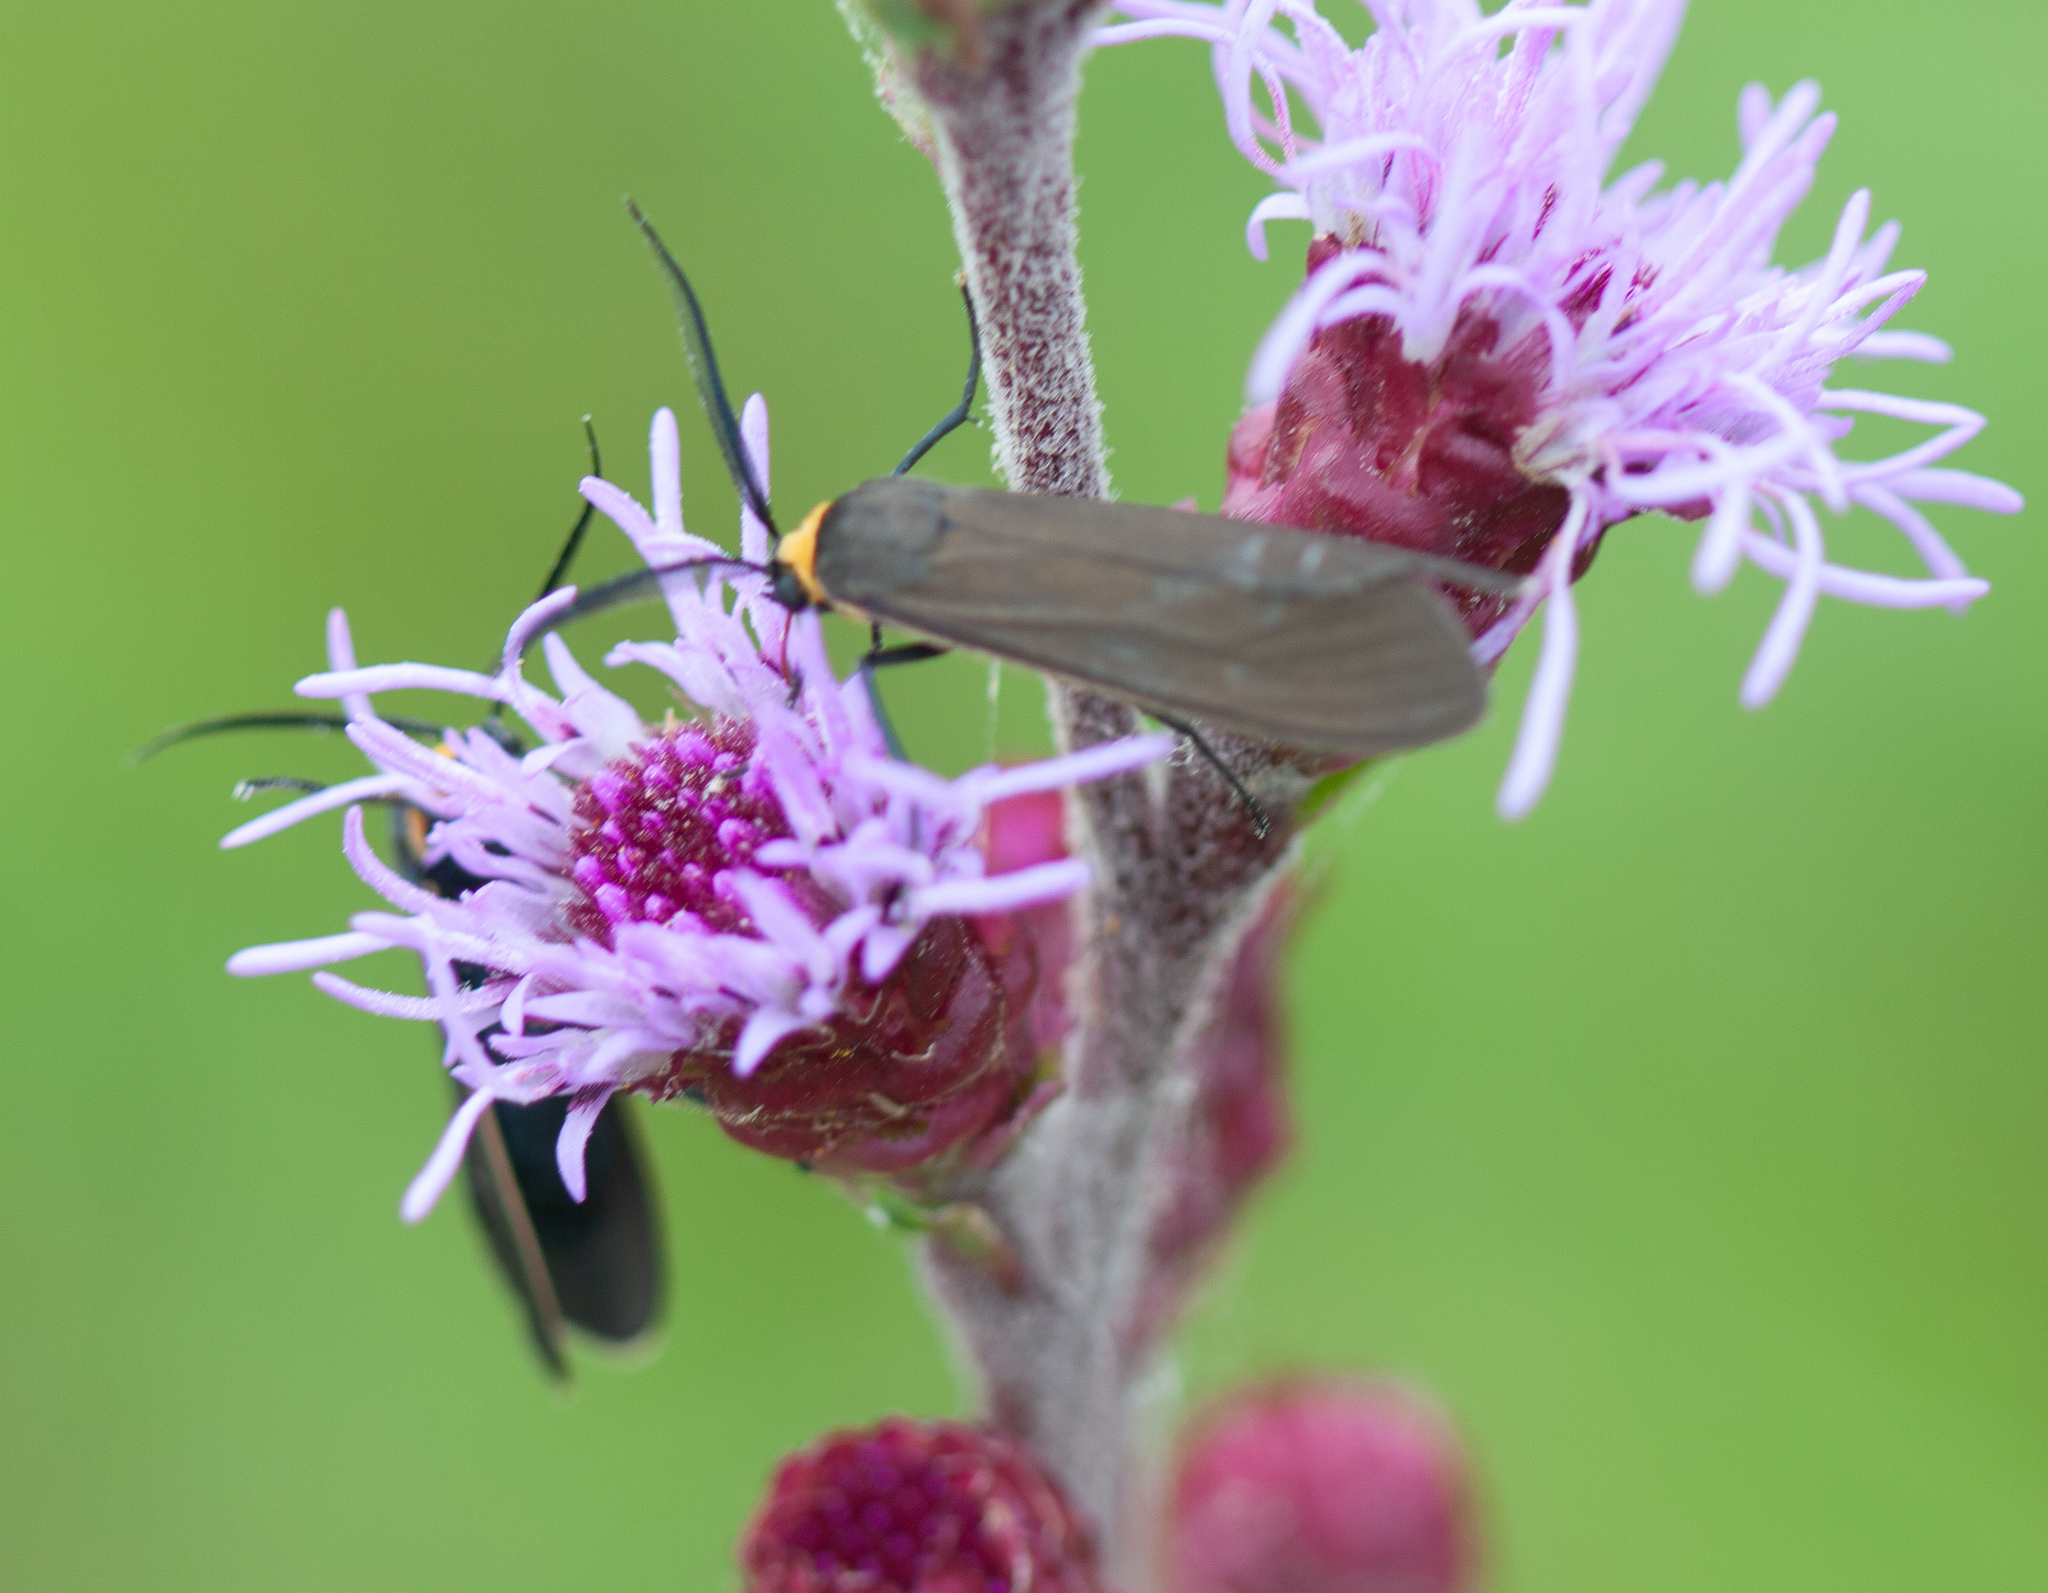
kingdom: Animalia
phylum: Arthropoda
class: Insecta
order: Lepidoptera
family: Erebidae
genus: Cisseps
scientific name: Cisseps fulvicollis
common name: Yellow-collared scape moth
